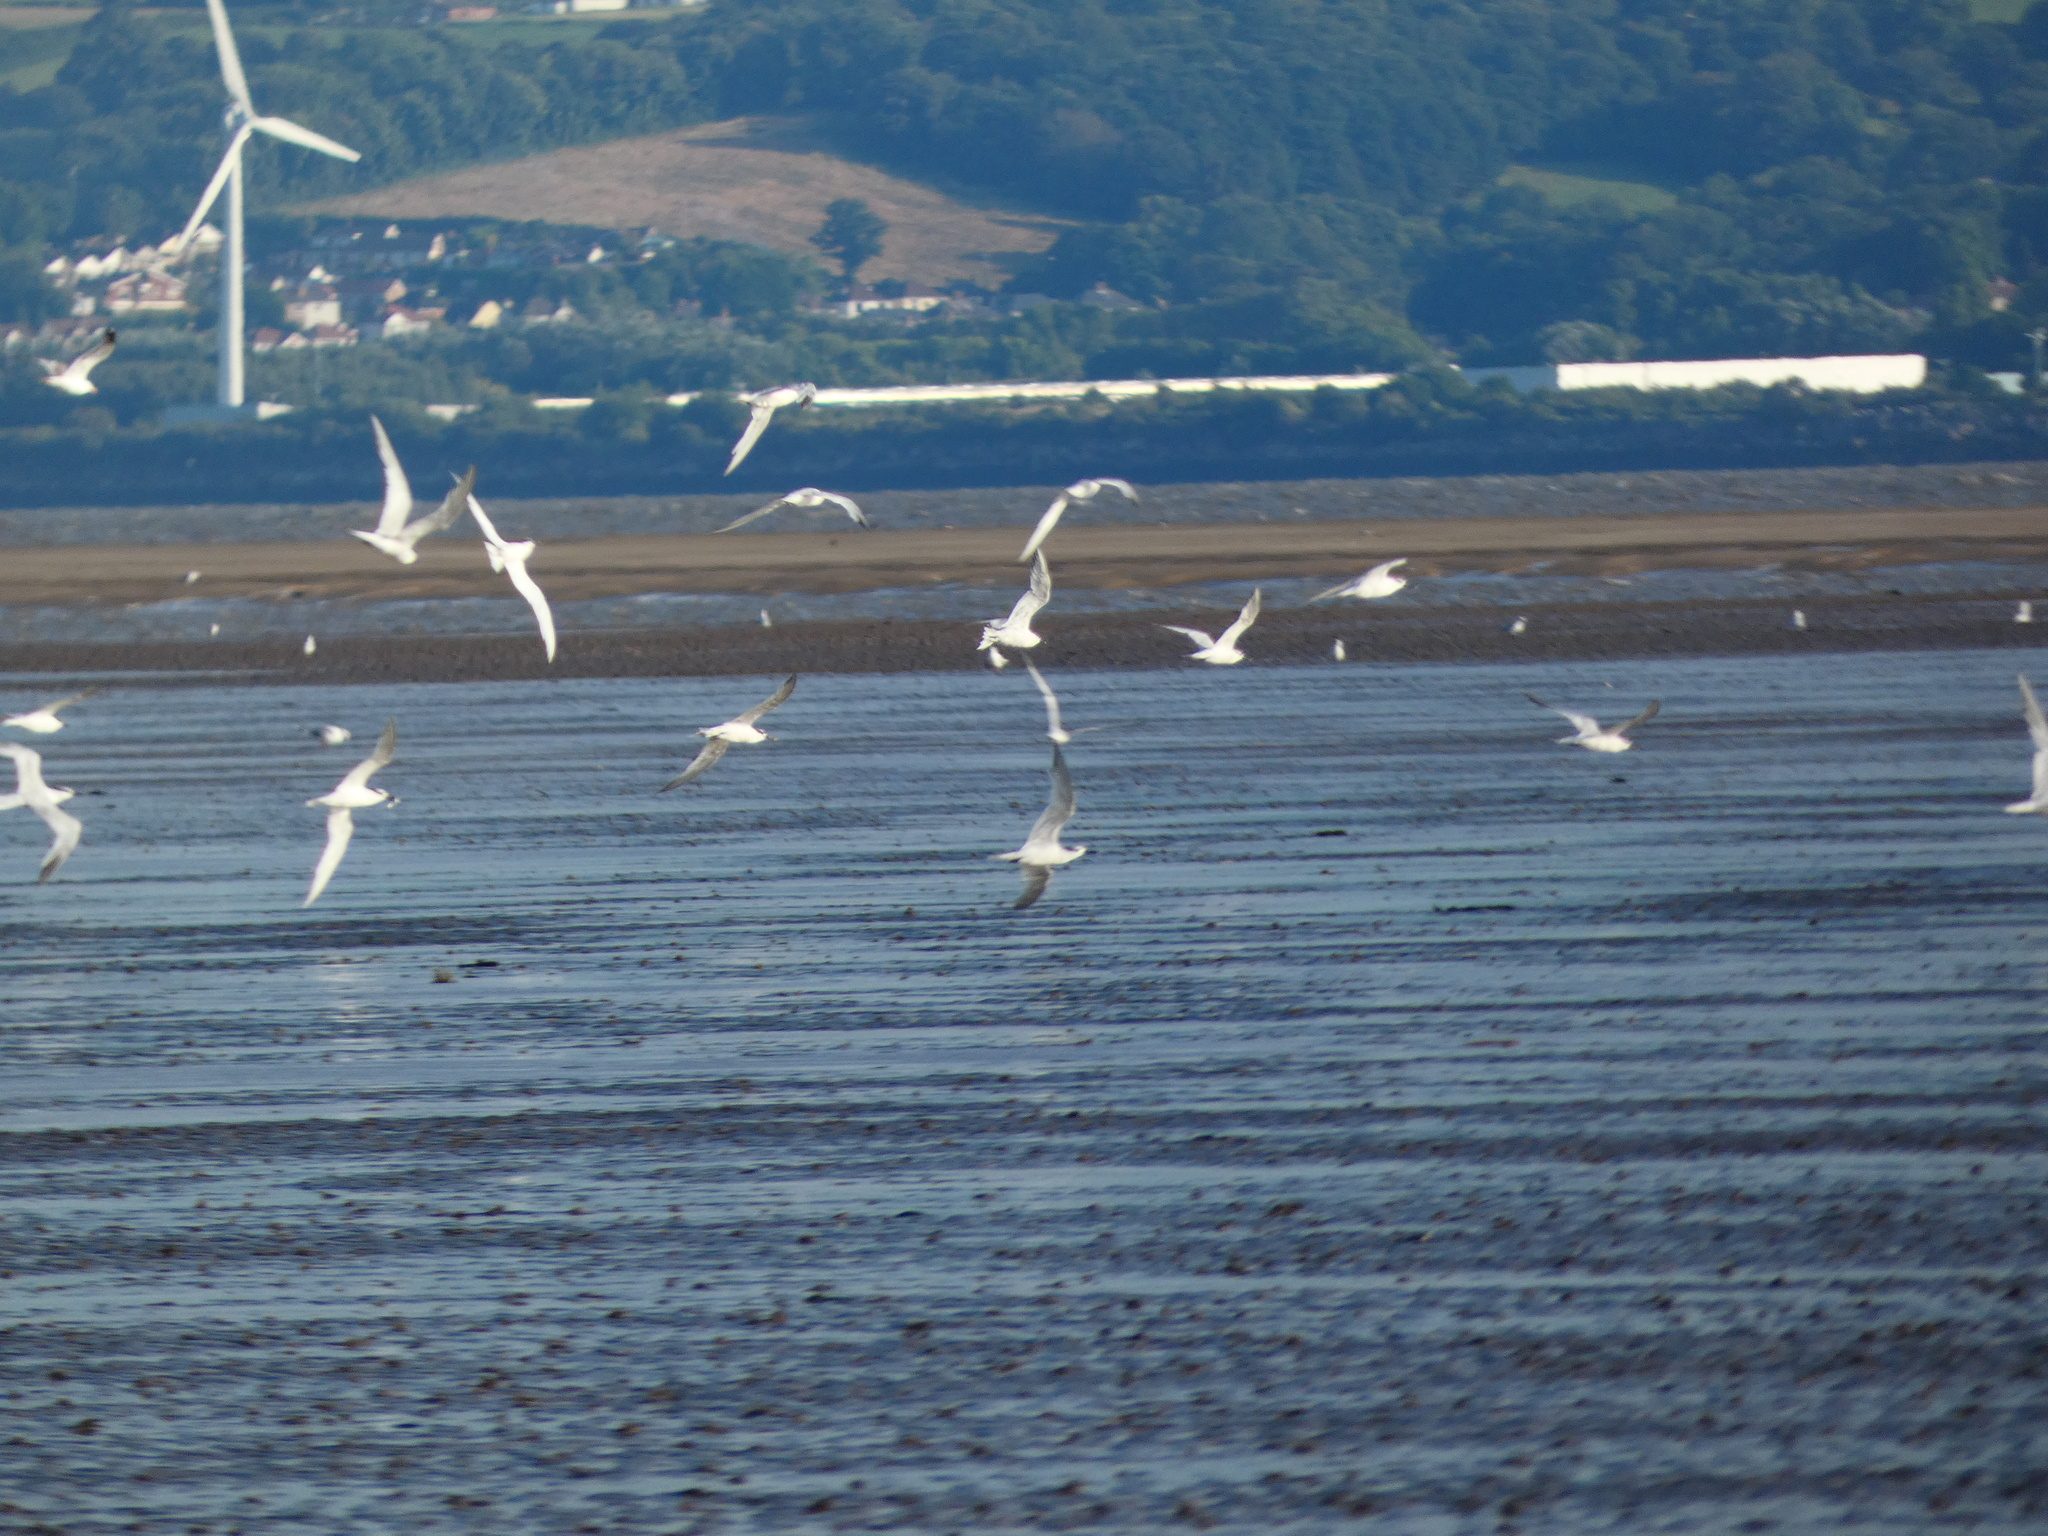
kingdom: Animalia
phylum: Chordata
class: Aves
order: Charadriiformes
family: Laridae
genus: Thalasseus
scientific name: Thalasseus sandvicensis
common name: Sandwich tern
